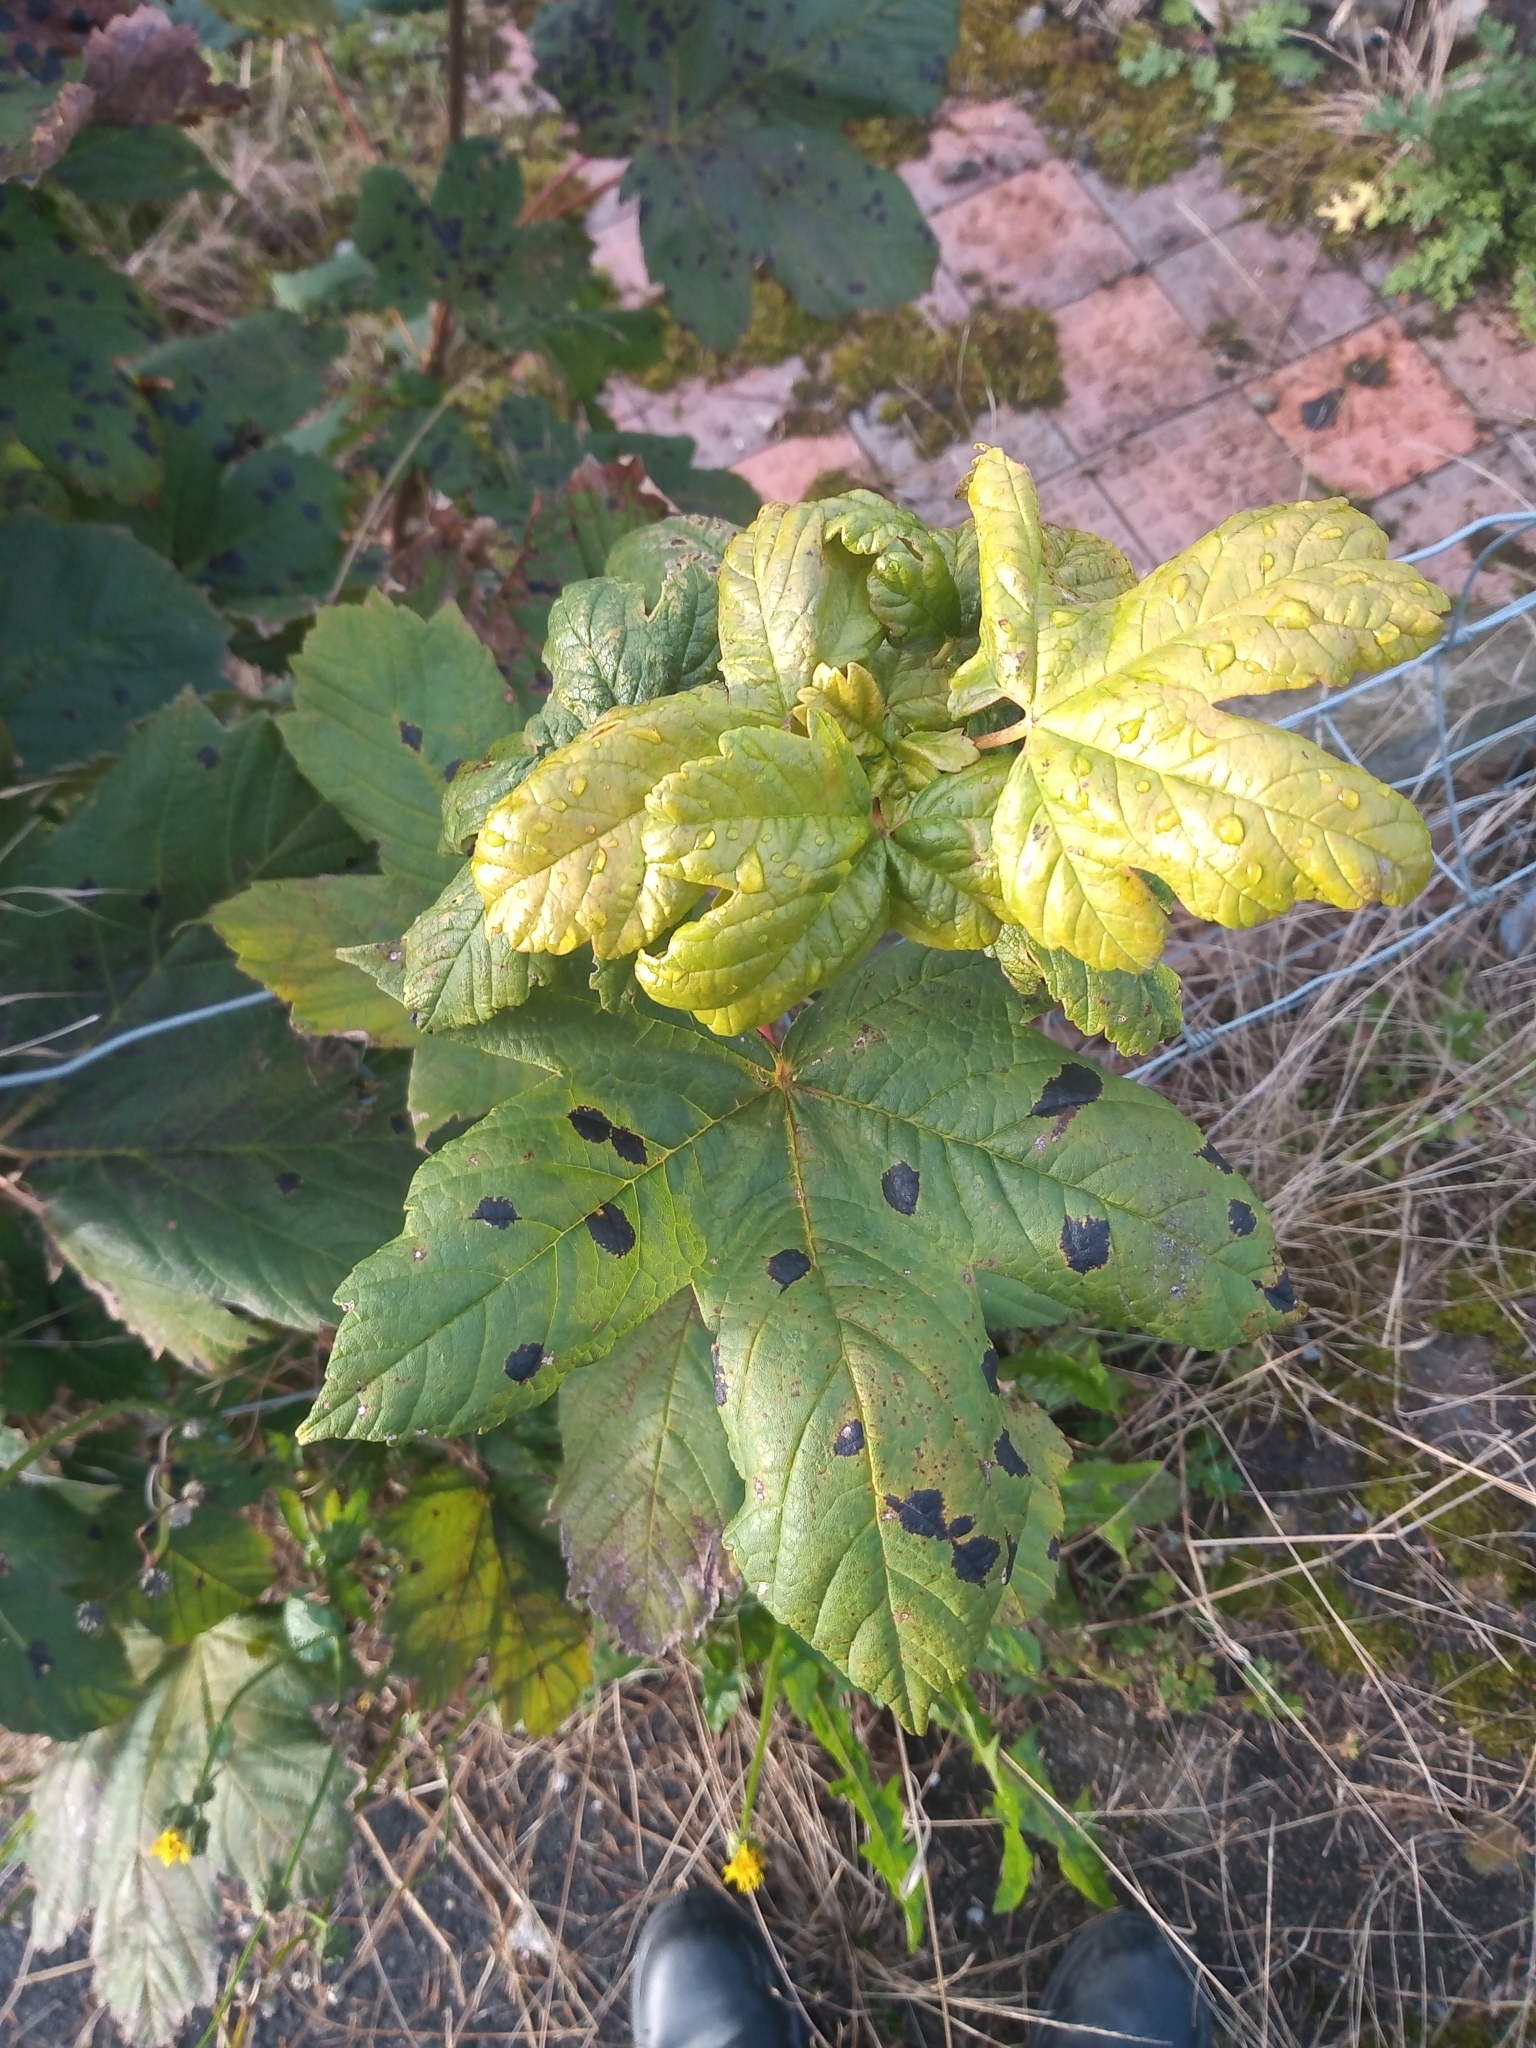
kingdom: Plantae
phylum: Tracheophyta
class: Magnoliopsida
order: Sapindales
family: Sapindaceae
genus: Acer
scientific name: Acer pseudoplatanus
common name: Sycamore
